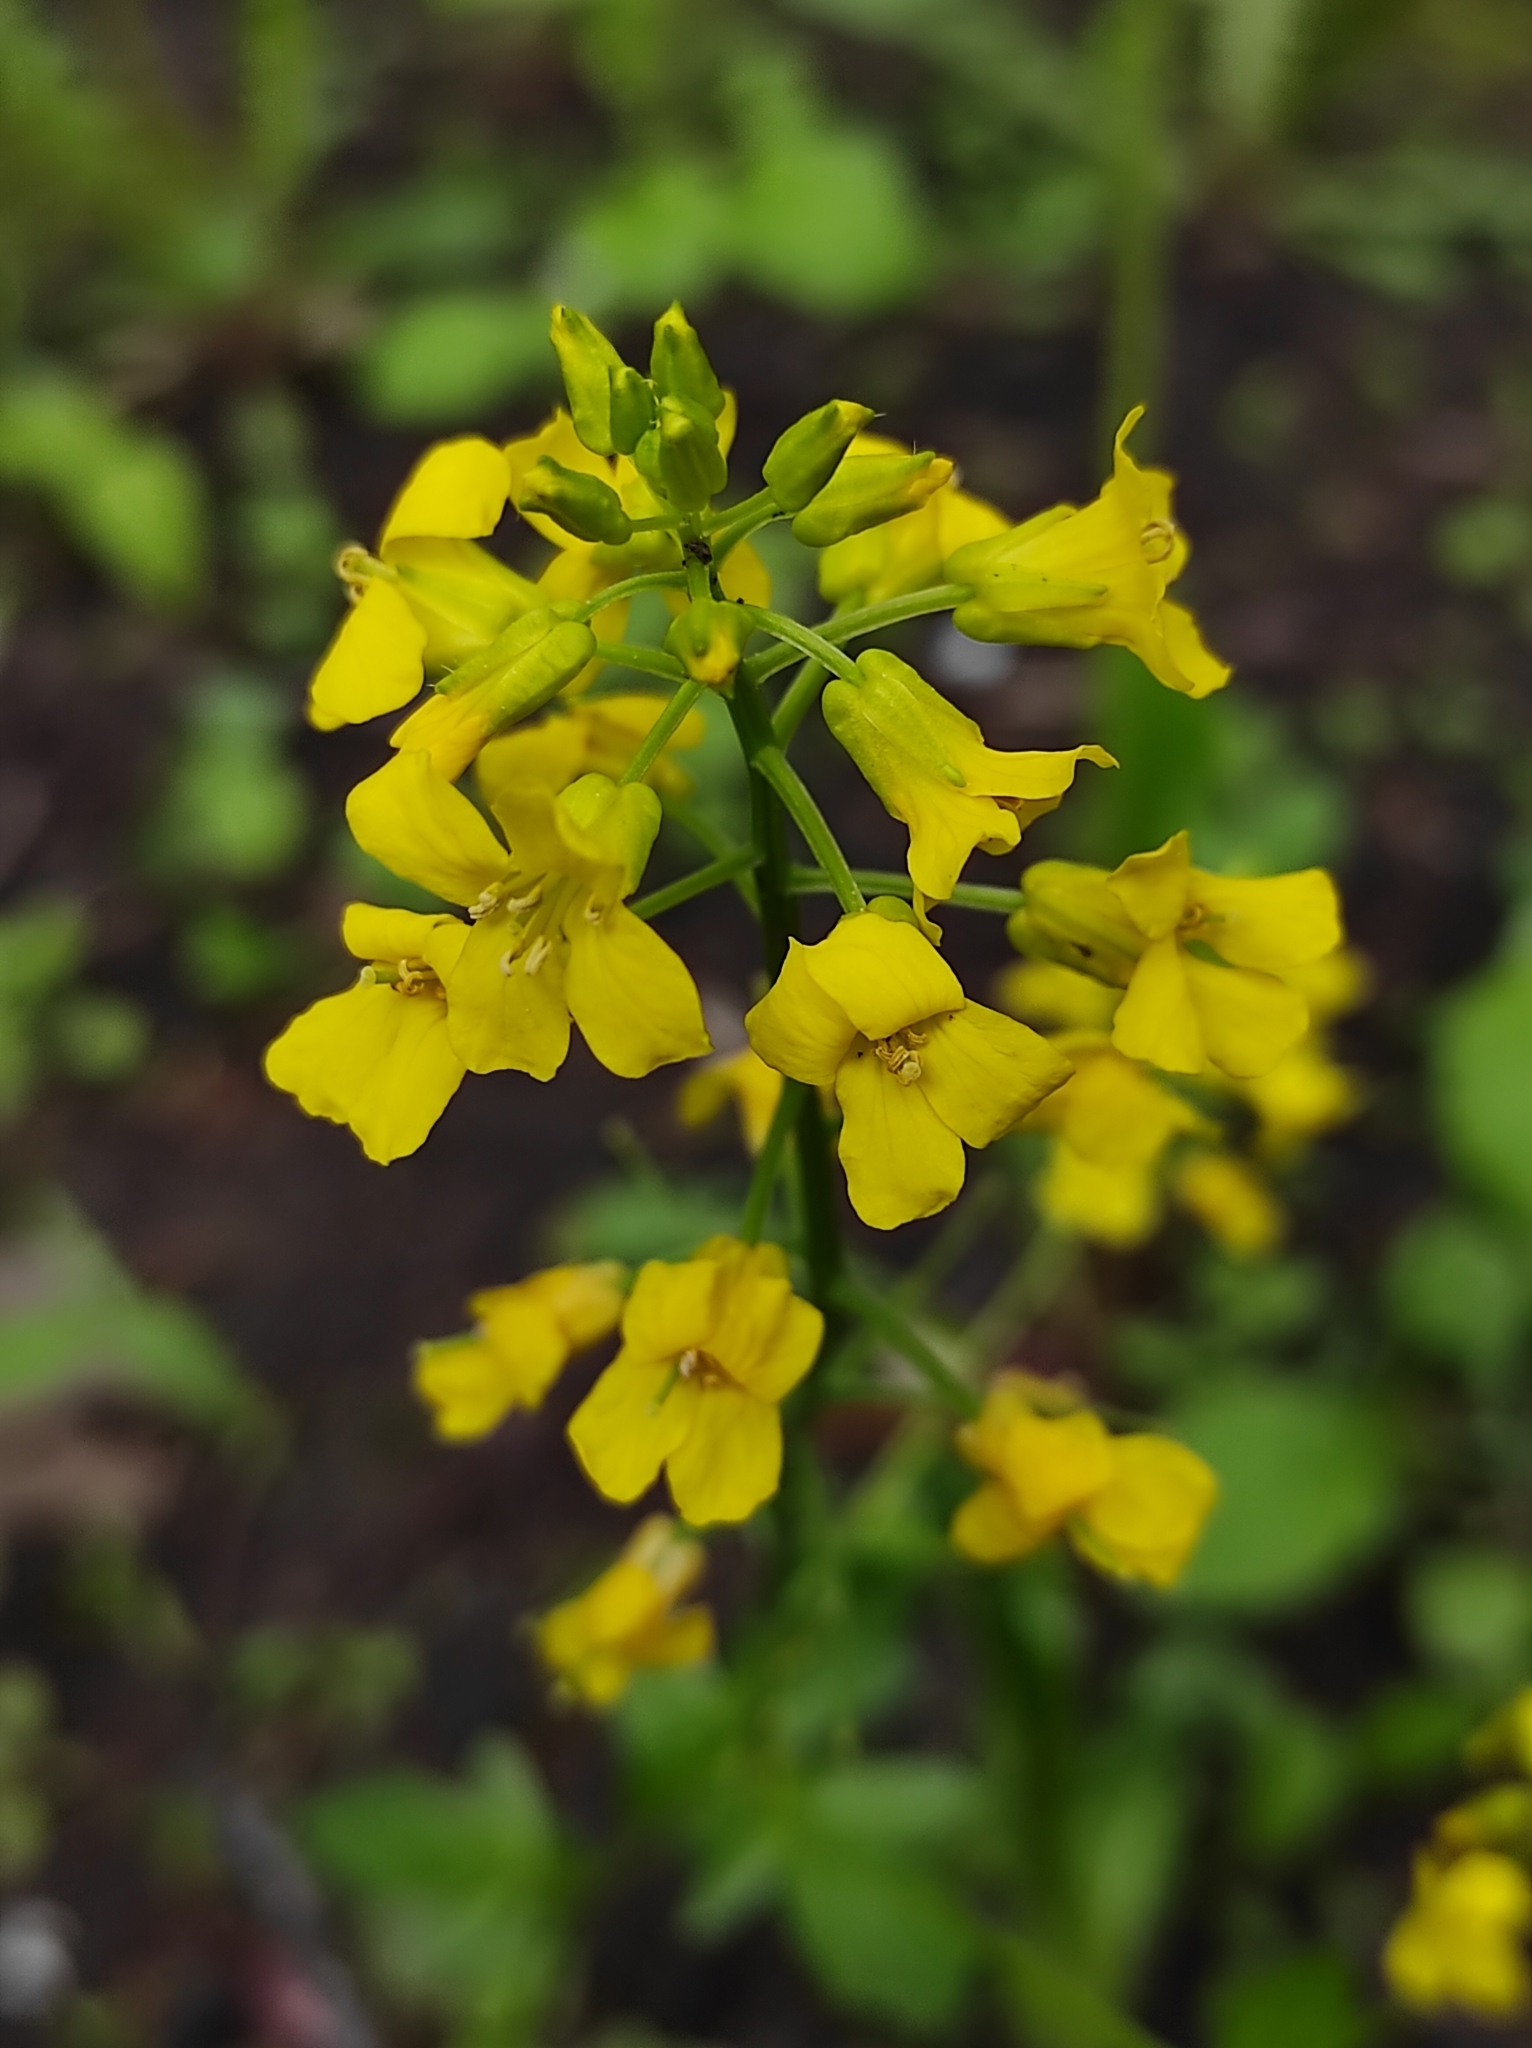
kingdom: Plantae
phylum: Tracheophyta
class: Magnoliopsida
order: Brassicales
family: Brassicaceae
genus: Barbarea
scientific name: Barbarea vulgaris
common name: Cressy-greens
